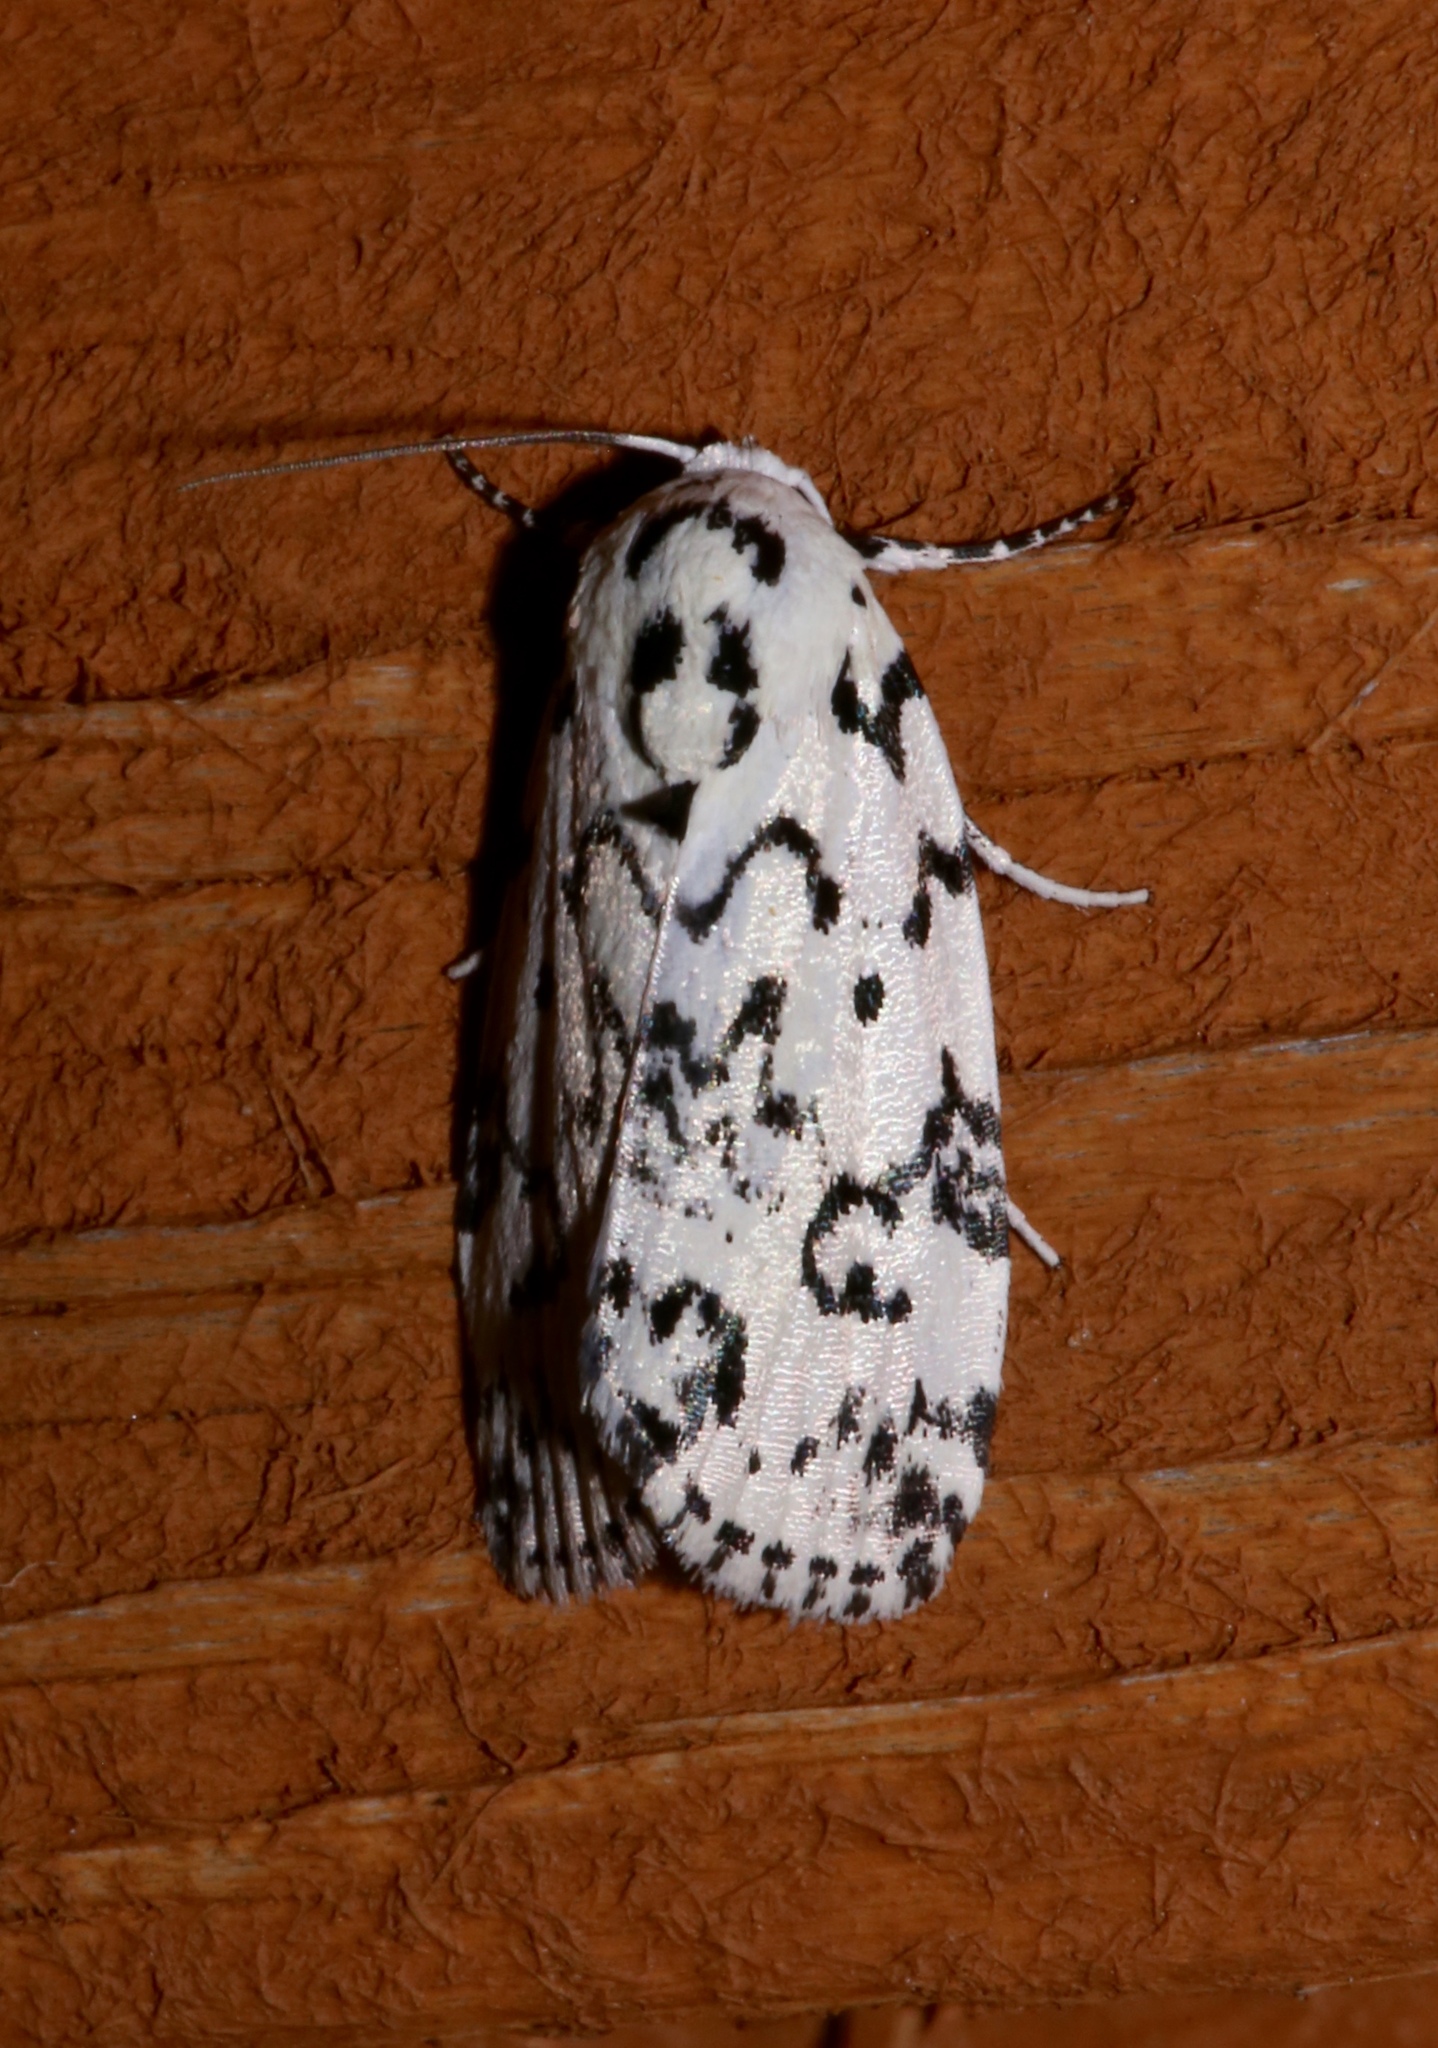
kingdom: Animalia
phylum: Arthropoda
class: Insecta
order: Lepidoptera
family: Noctuidae
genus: Polygrammate
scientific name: Polygrammate hebraeicum
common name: Hebrew moth
